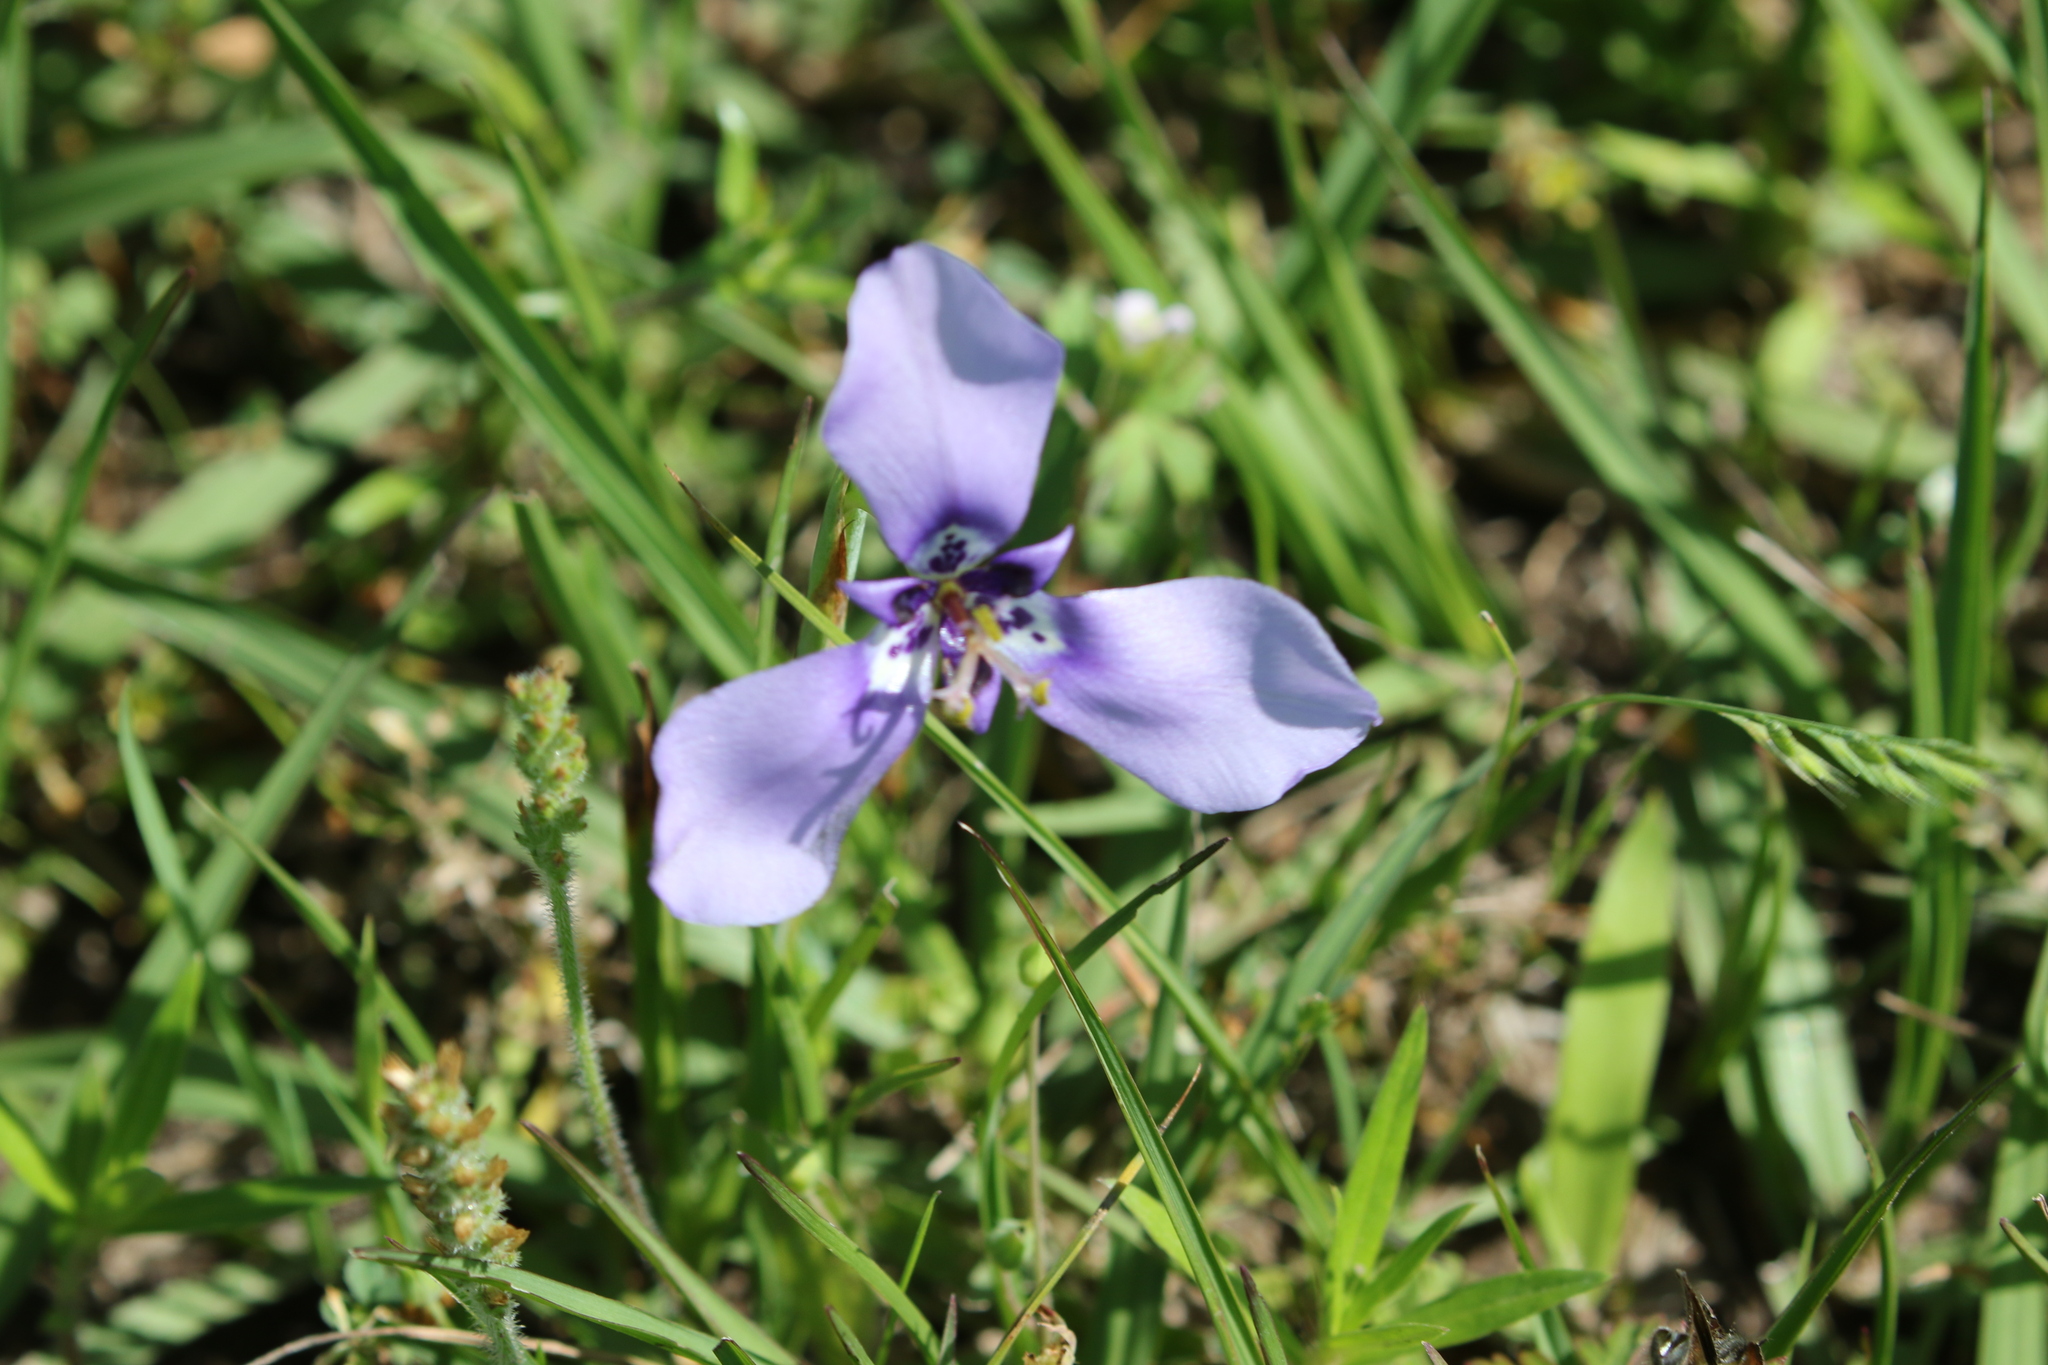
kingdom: Plantae
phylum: Tracheophyta
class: Liliopsida
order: Asparagales
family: Iridaceae
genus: Herbertia
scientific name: Herbertia lahue
